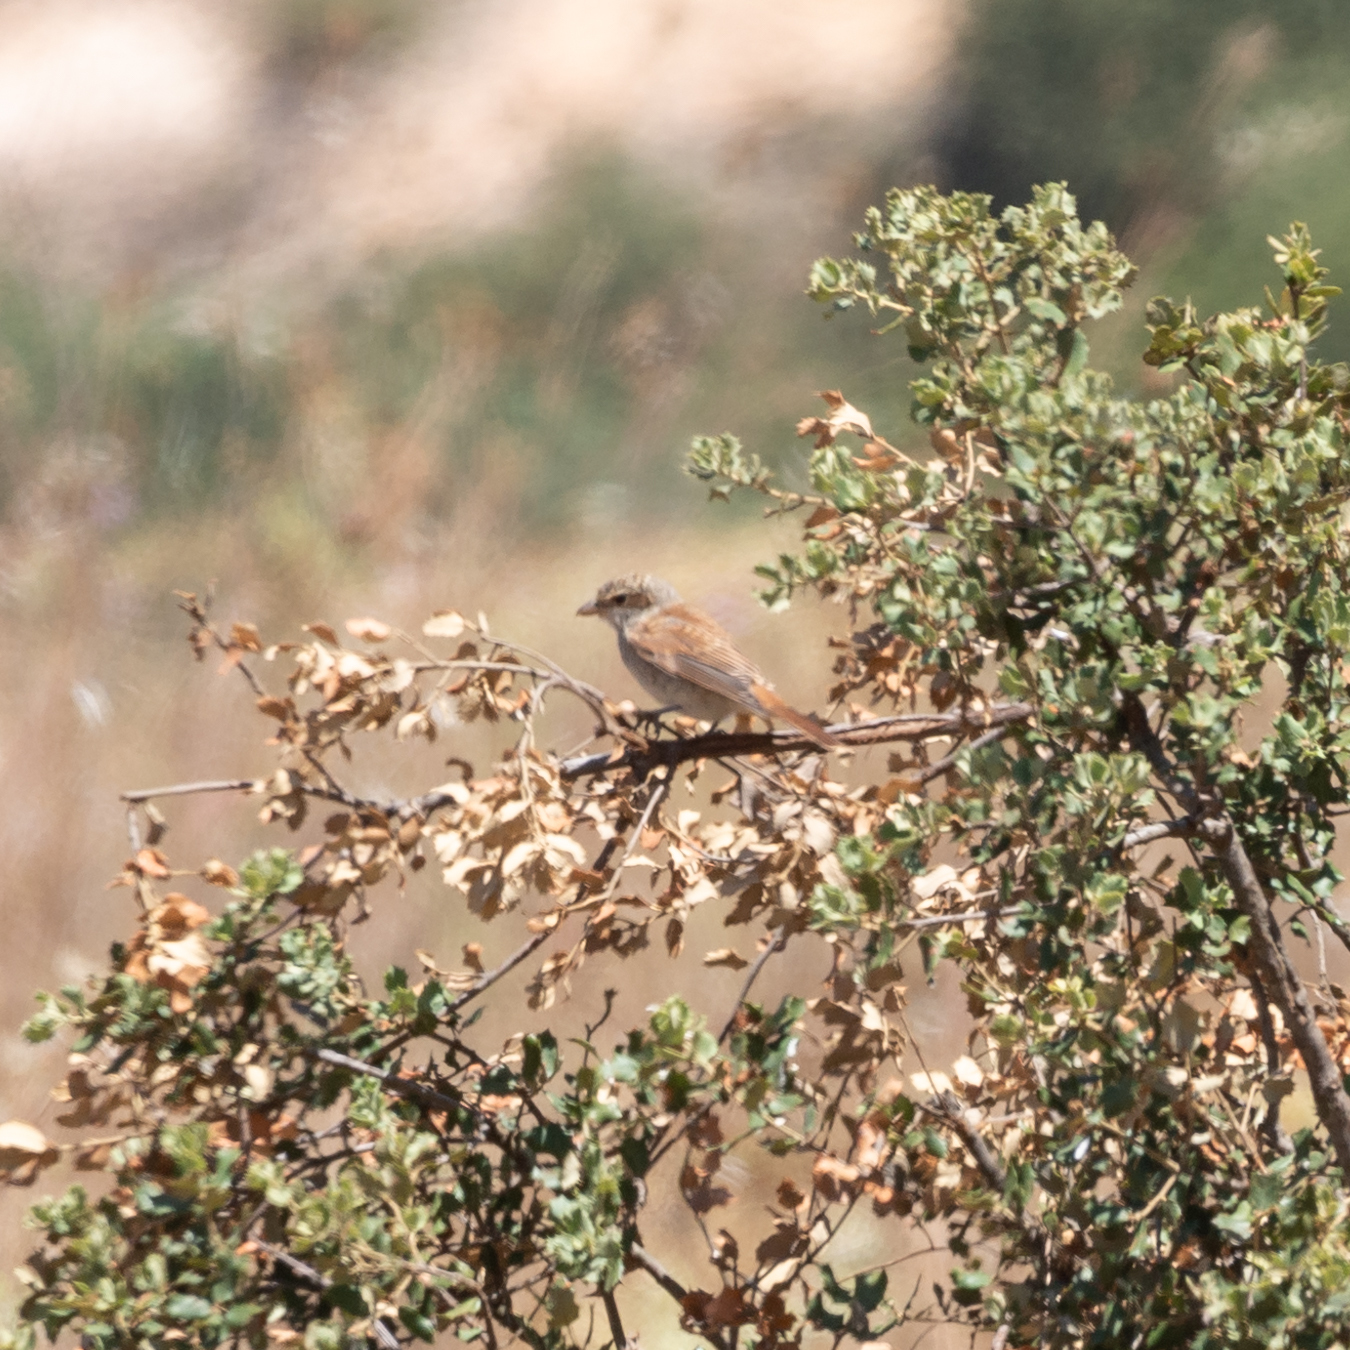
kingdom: Animalia
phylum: Chordata
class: Aves
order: Passeriformes
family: Laniidae
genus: Lanius
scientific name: Lanius collurio
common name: Red-backed shrike
